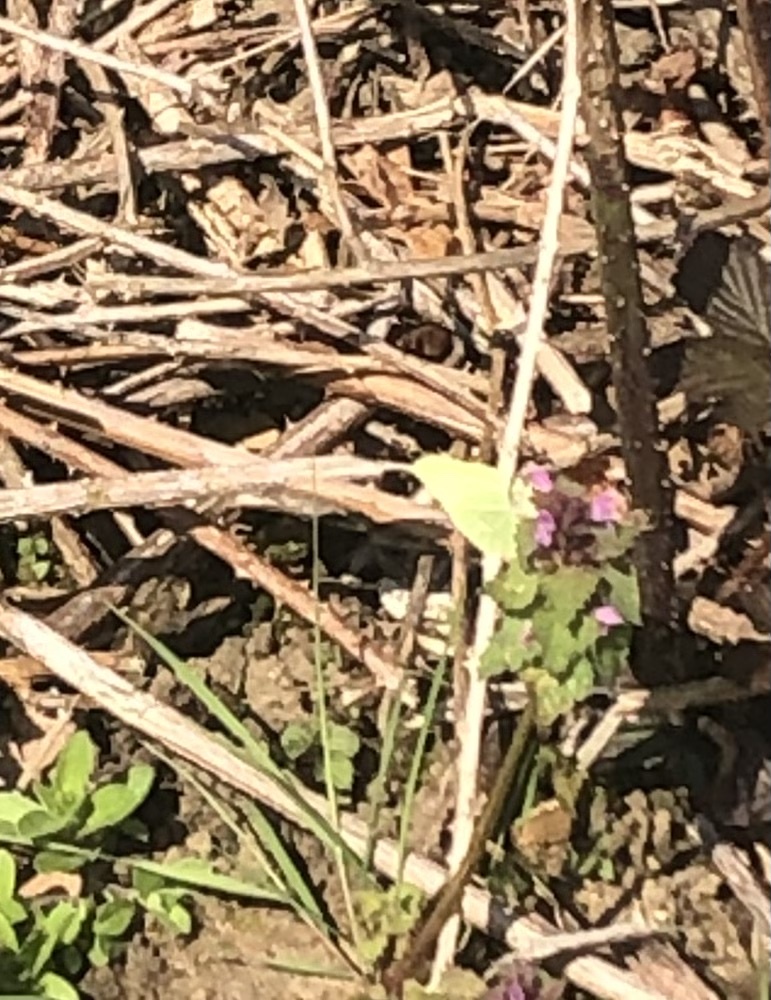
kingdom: Animalia
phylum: Arthropoda
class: Insecta
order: Lepidoptera
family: Pieridae
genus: Gonepteryx
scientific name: Gonepteryx rhamni
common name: Brimstone
